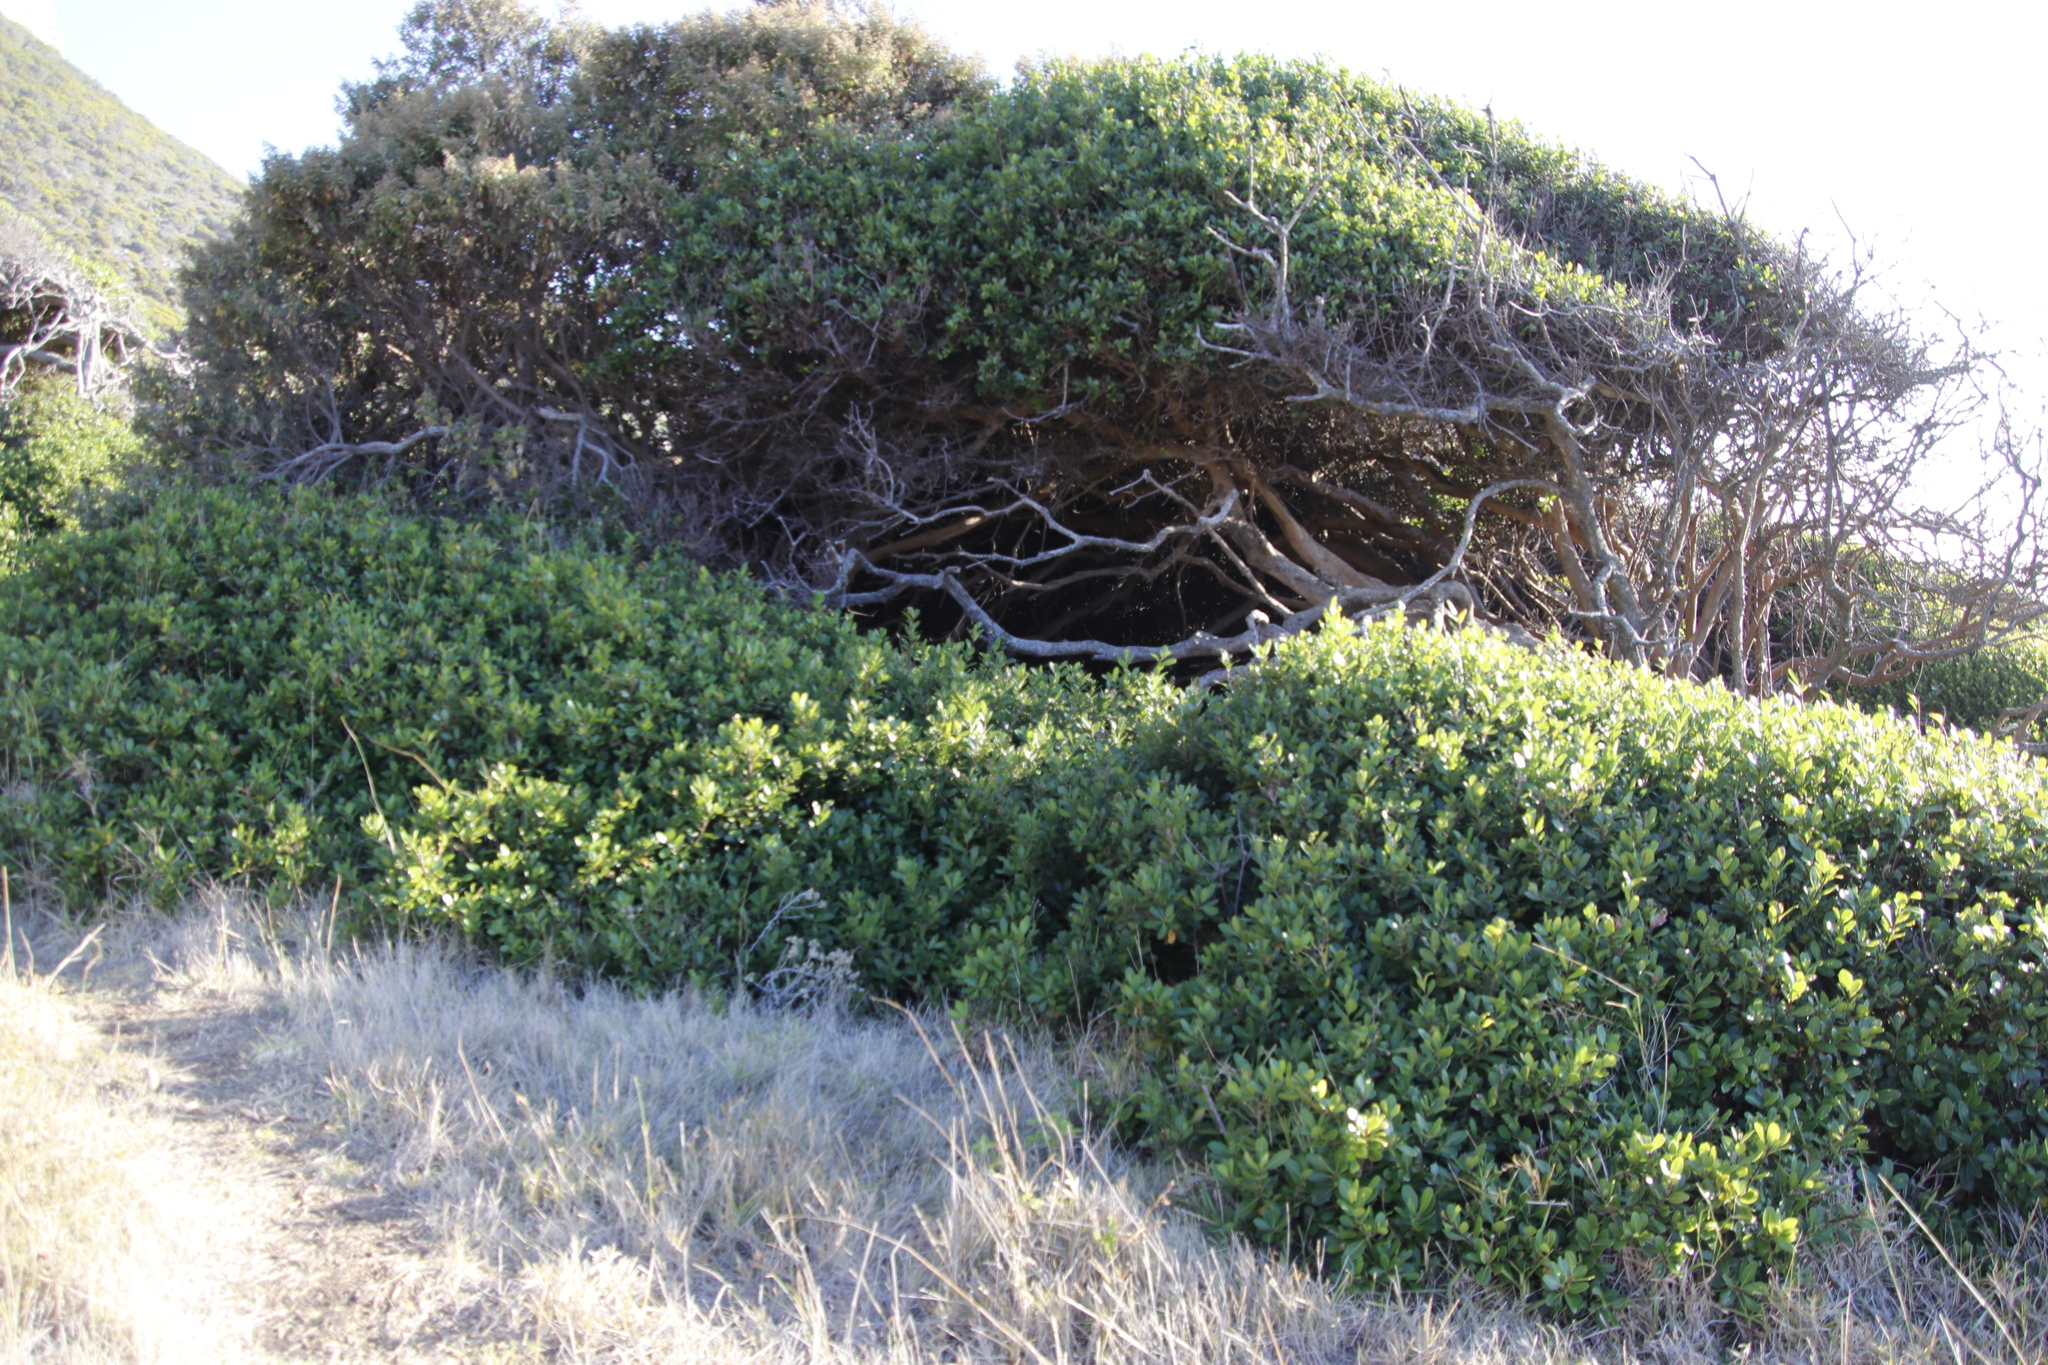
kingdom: Plantae
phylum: Tracheophyta
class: Magnoliopsida
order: Ericales
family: Sapotaceae
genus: Sideroxylon
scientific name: Sideroxylon inerme
